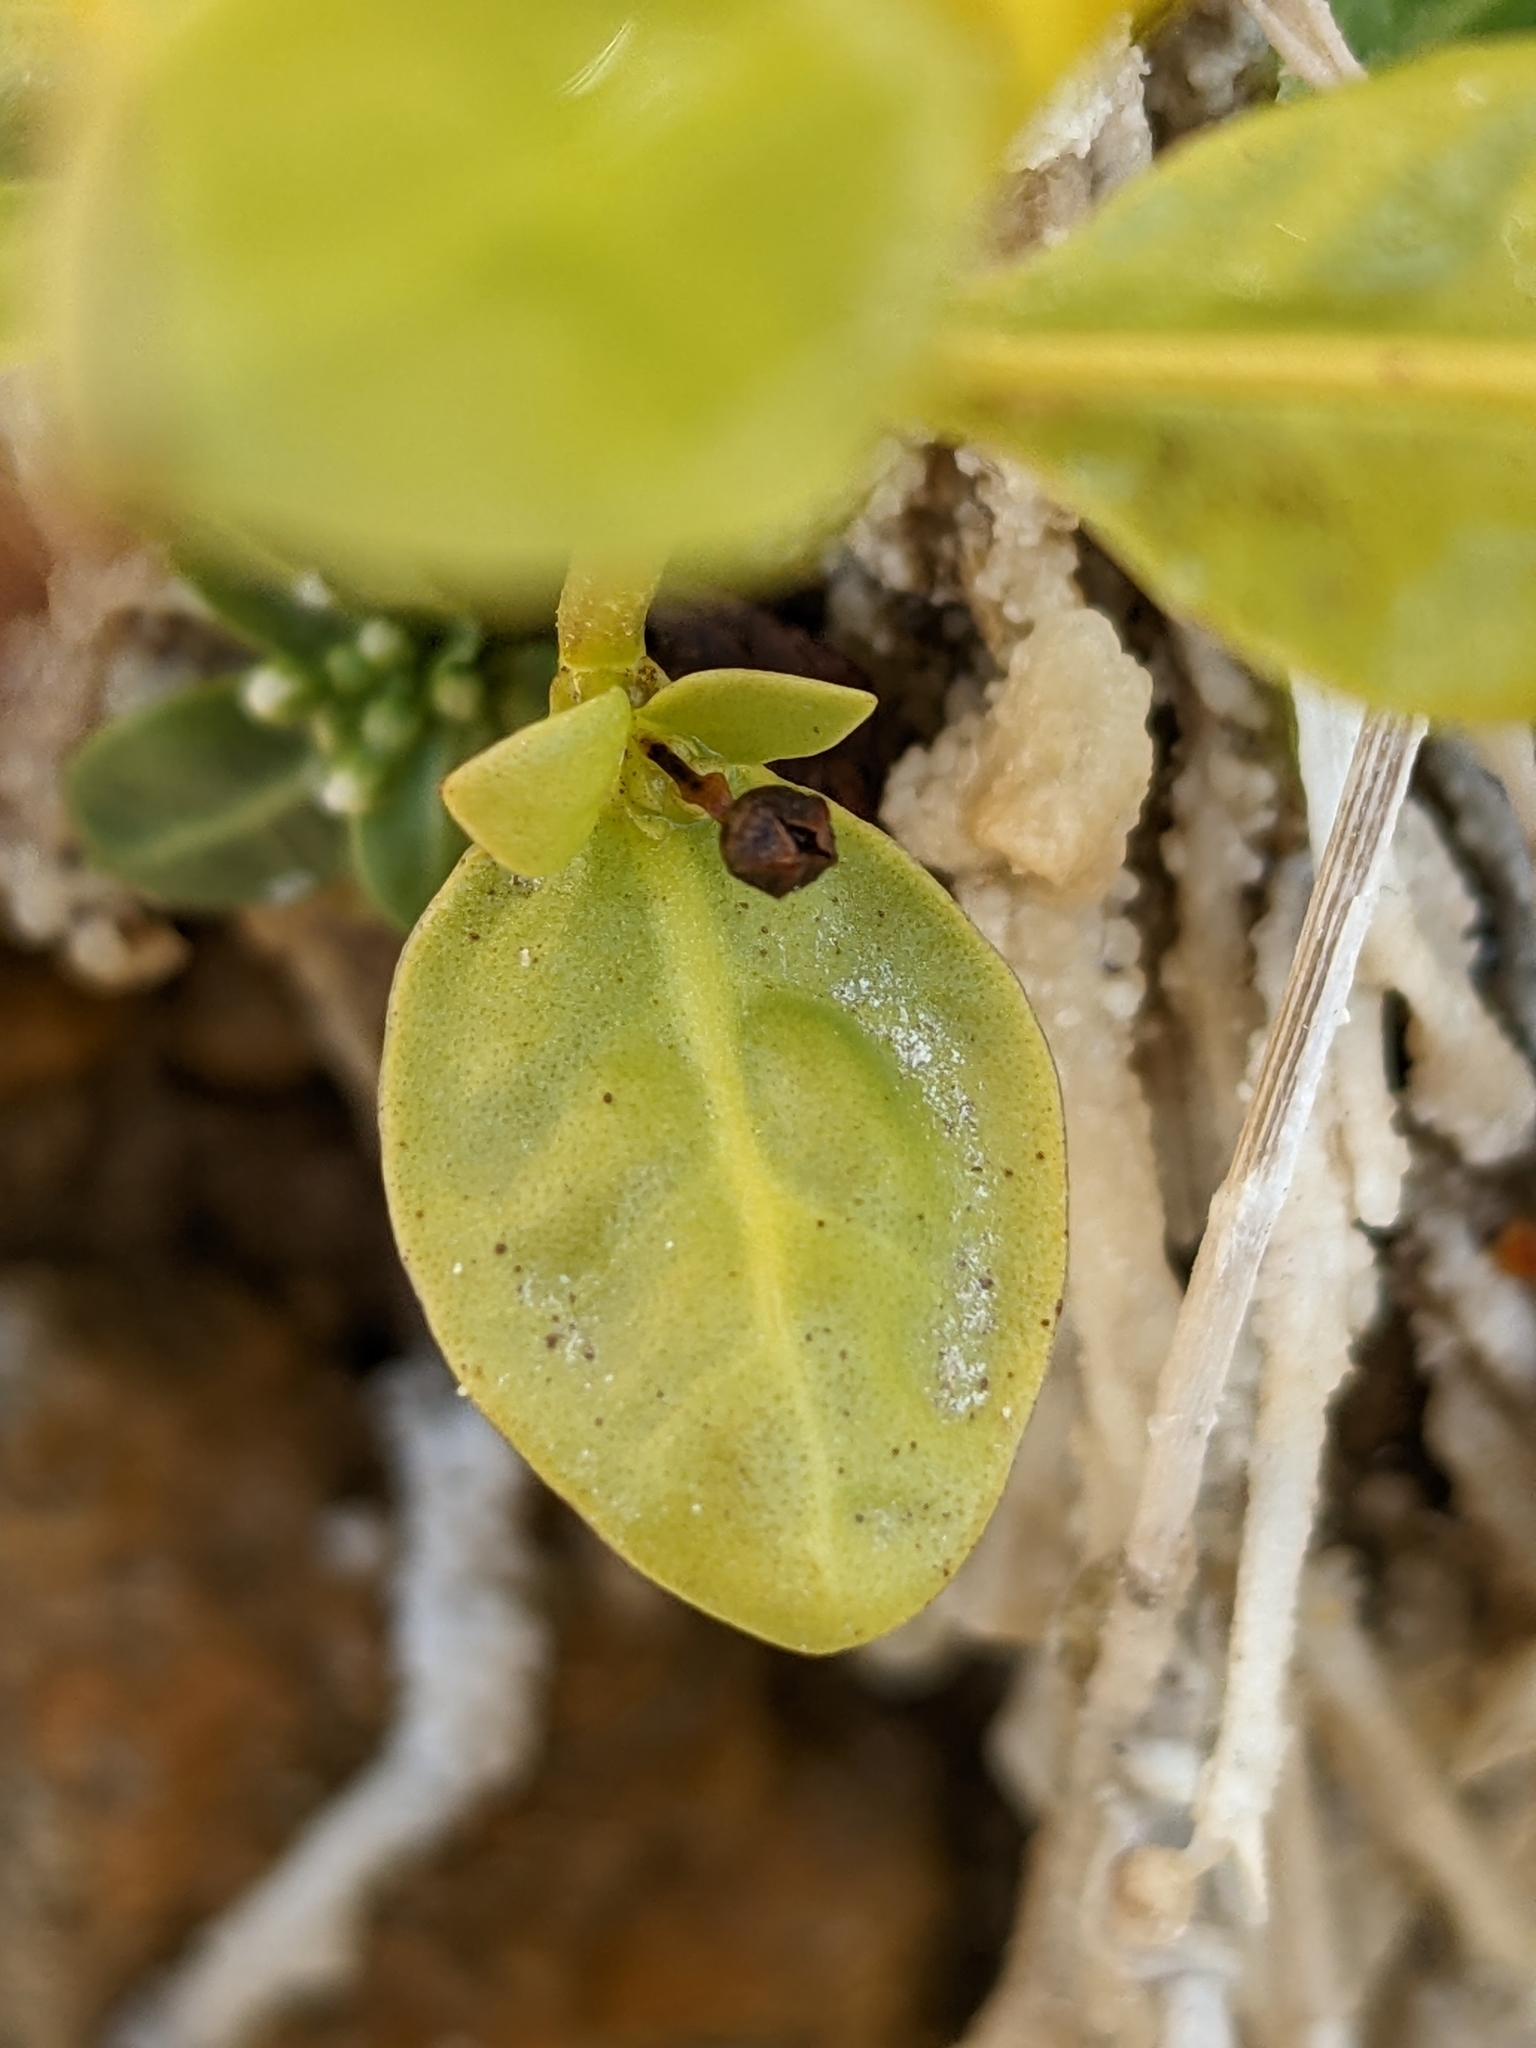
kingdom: Plantae
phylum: Tracheophyta
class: Magnoliopsida
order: Ericales
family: Primulaceae
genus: Samolus
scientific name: Samolus valerandi
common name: Brookweed
